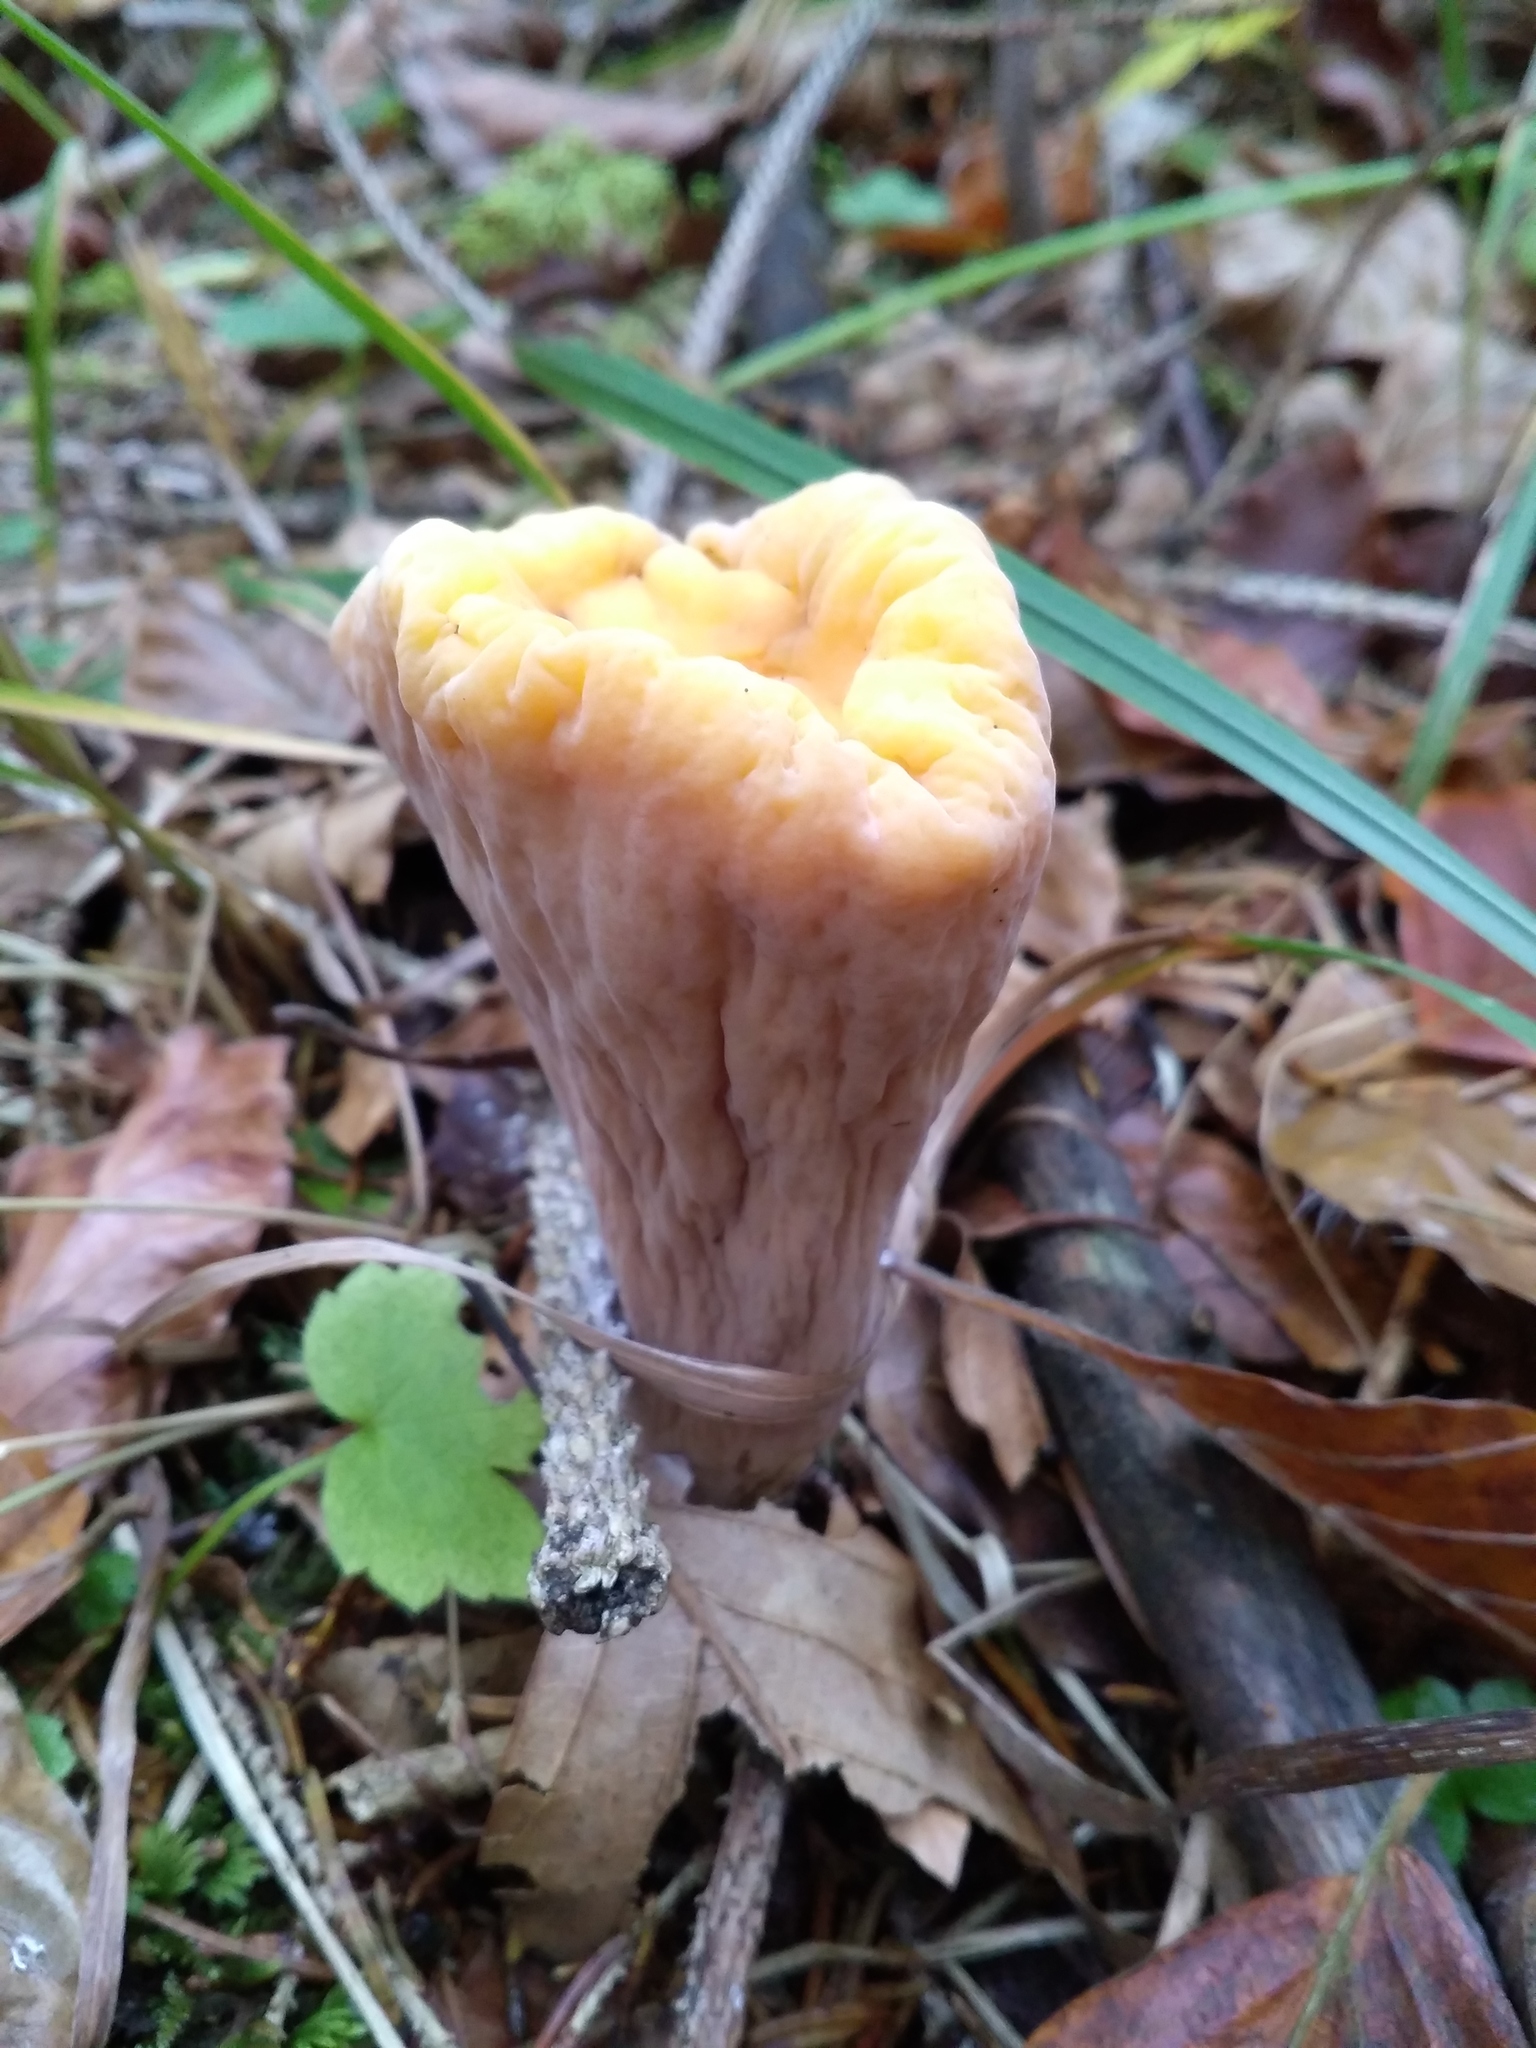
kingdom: Fungi
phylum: Basidiomycota
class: Agaricomycetes
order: Gomphales
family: Clavariadelphaceae
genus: Clavariadelphus
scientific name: Clavariadelphus truncatus
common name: Truncated club
